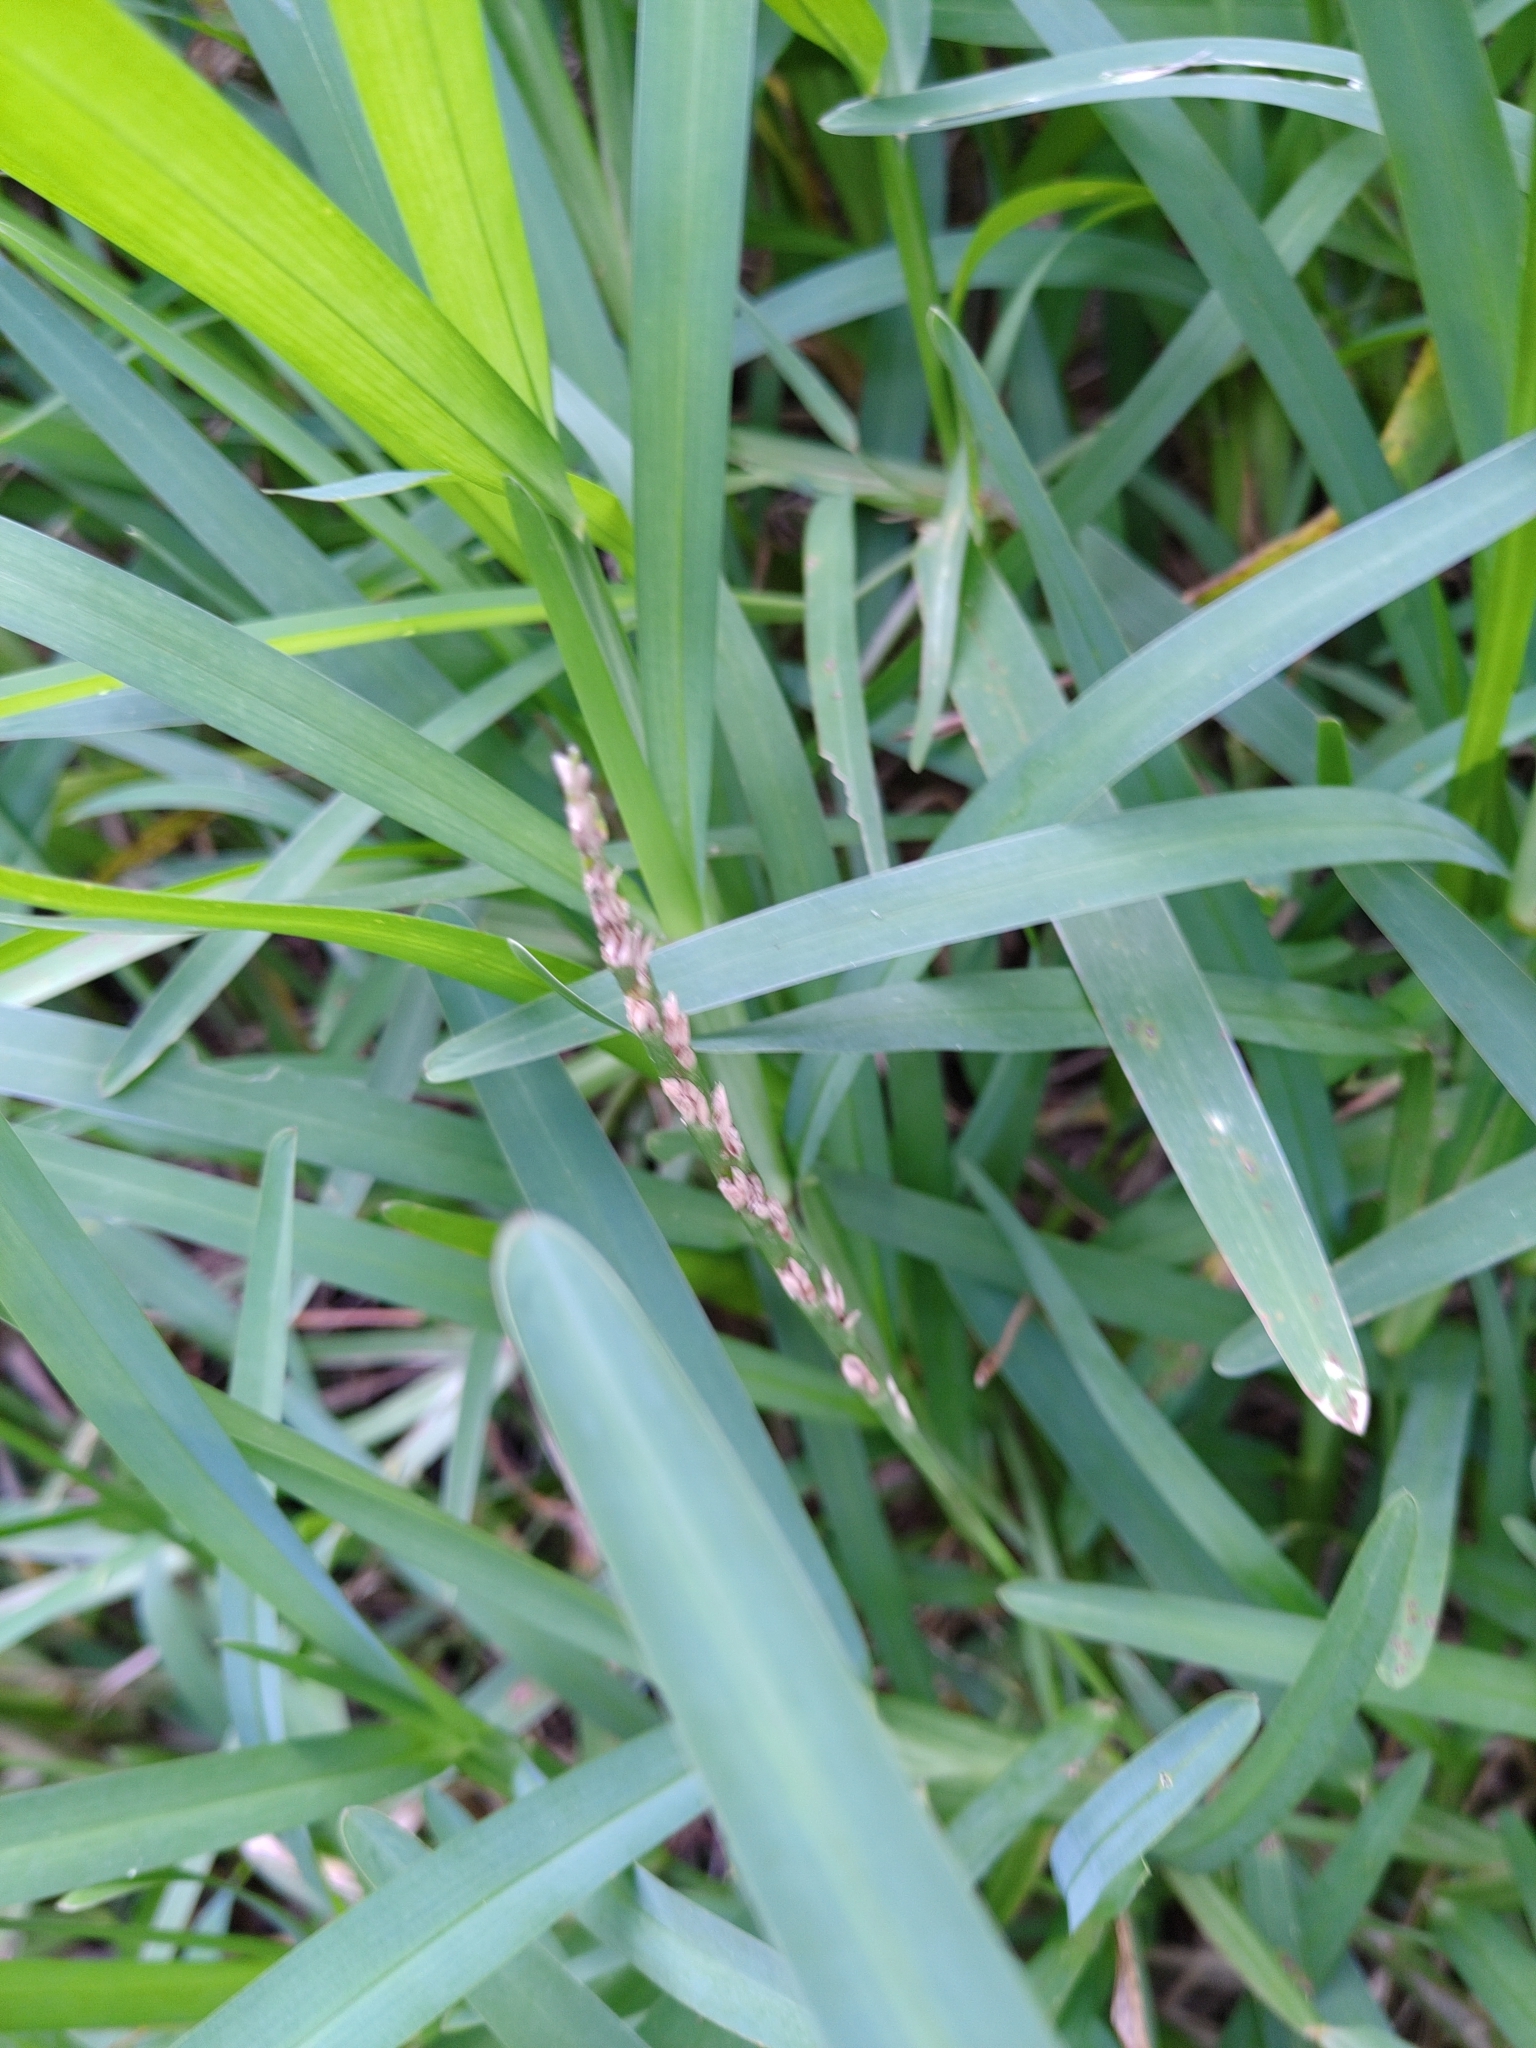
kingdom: Plantae
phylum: Tracheophyta
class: Liliopsida
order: Poales
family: Poaceae
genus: Stenotaphrum
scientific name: Stenotaphrum secundatum
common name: St. augustine grass
